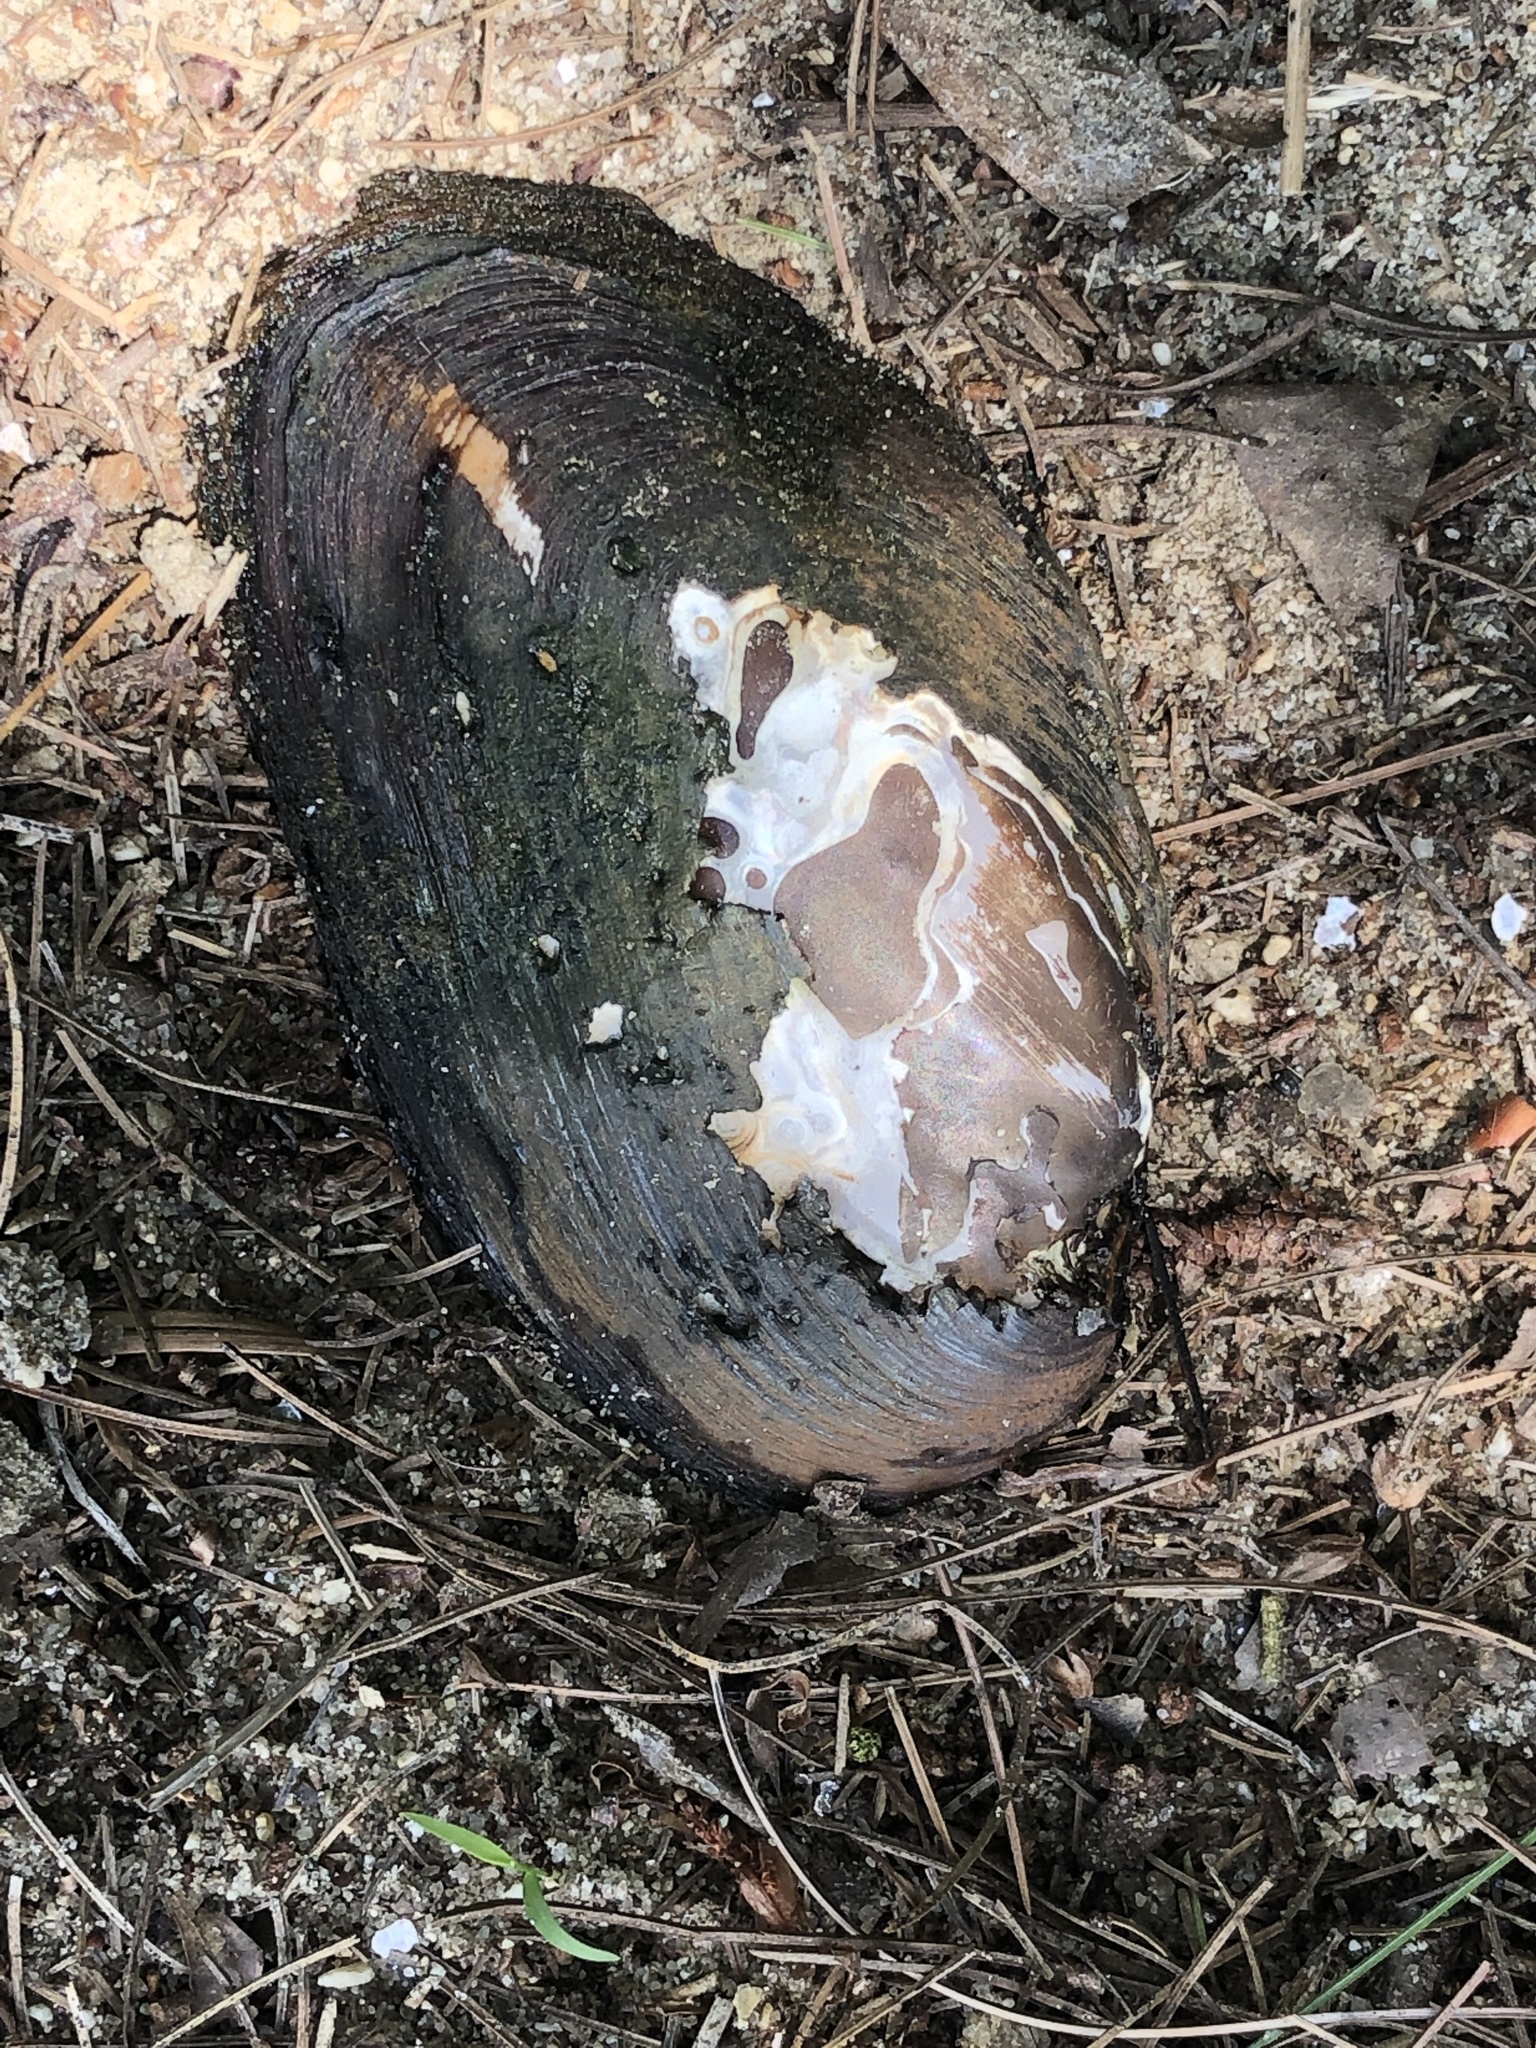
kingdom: Animalia
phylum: Mollusca
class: Bivalvia
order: Unionida
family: Unionidae
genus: Elliptio
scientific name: Elliptio complanata
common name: Eastern elliptio
